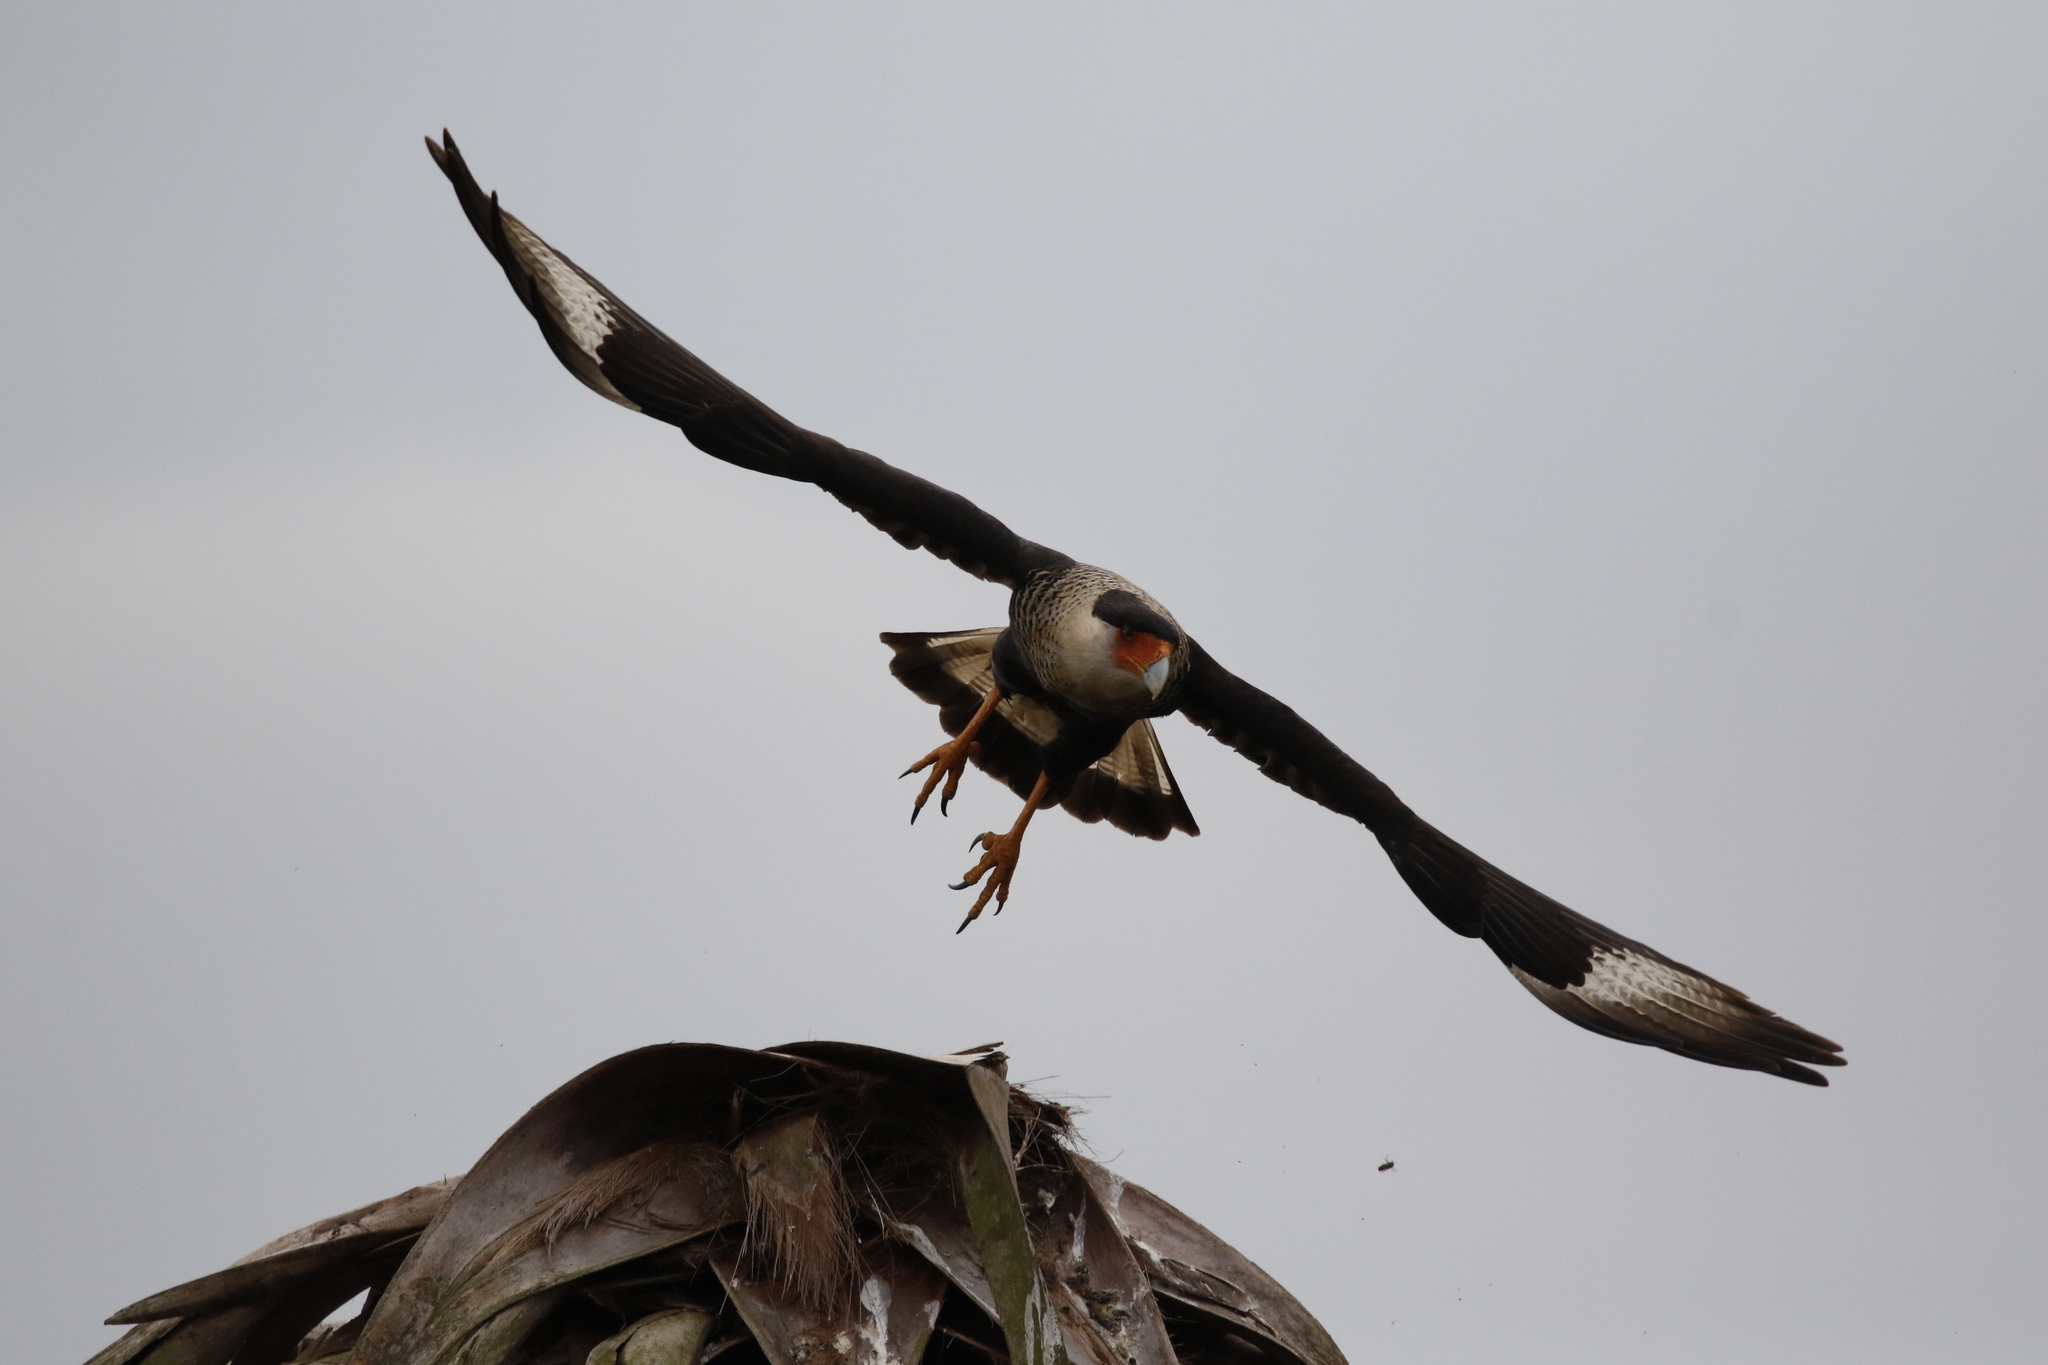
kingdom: Animalia
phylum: Chordata
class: Aves
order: Falconiformes
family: Falconidae
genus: Caracara
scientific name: Caracara plancus
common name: Southern caracara
